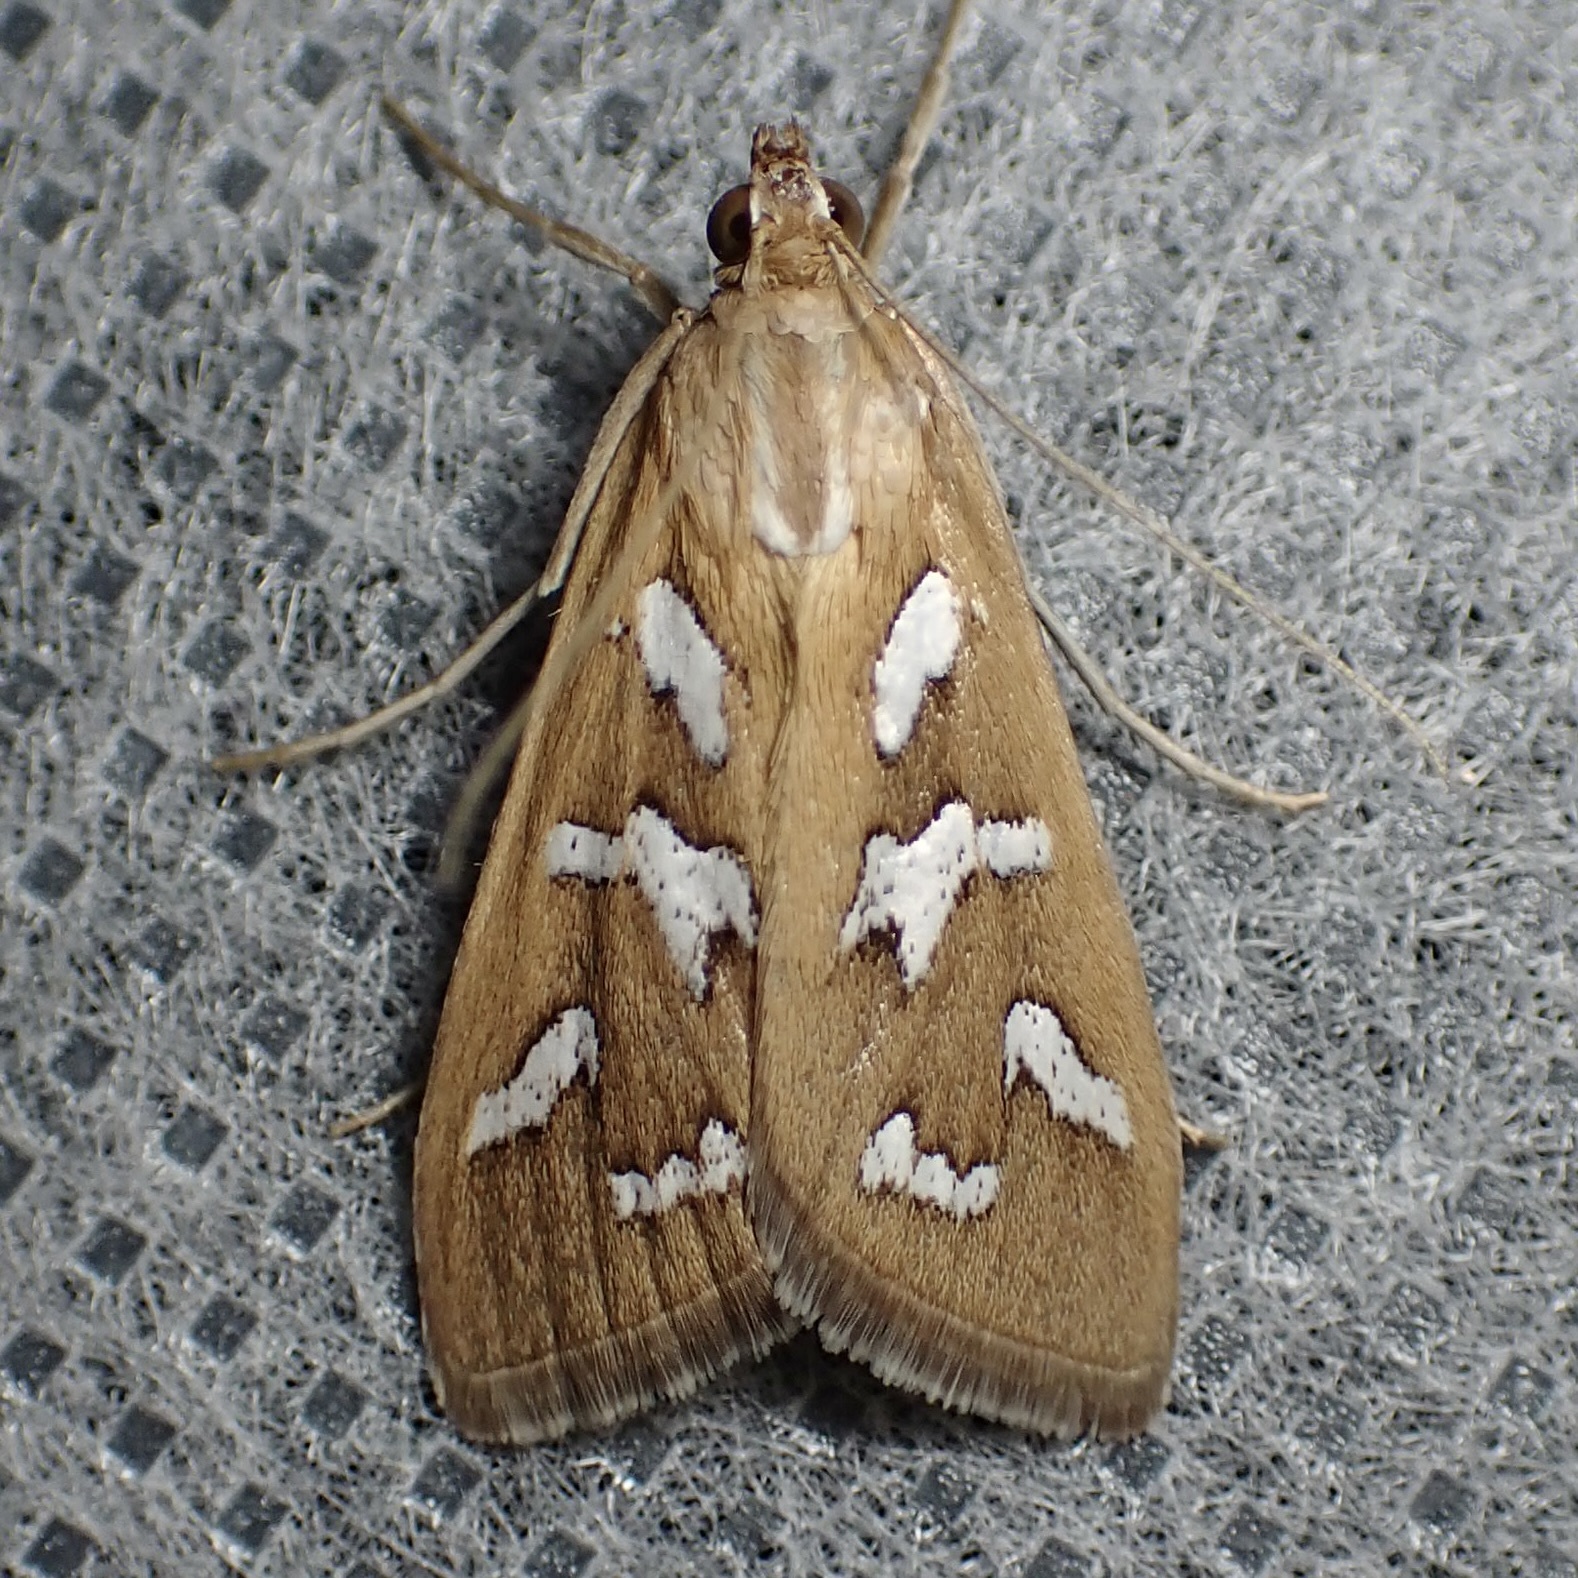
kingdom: Animalia
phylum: Arthropoda
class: Insecta
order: Lepidoptera
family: Crambidae
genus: Diastictis
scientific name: Diastictis fracturalis
